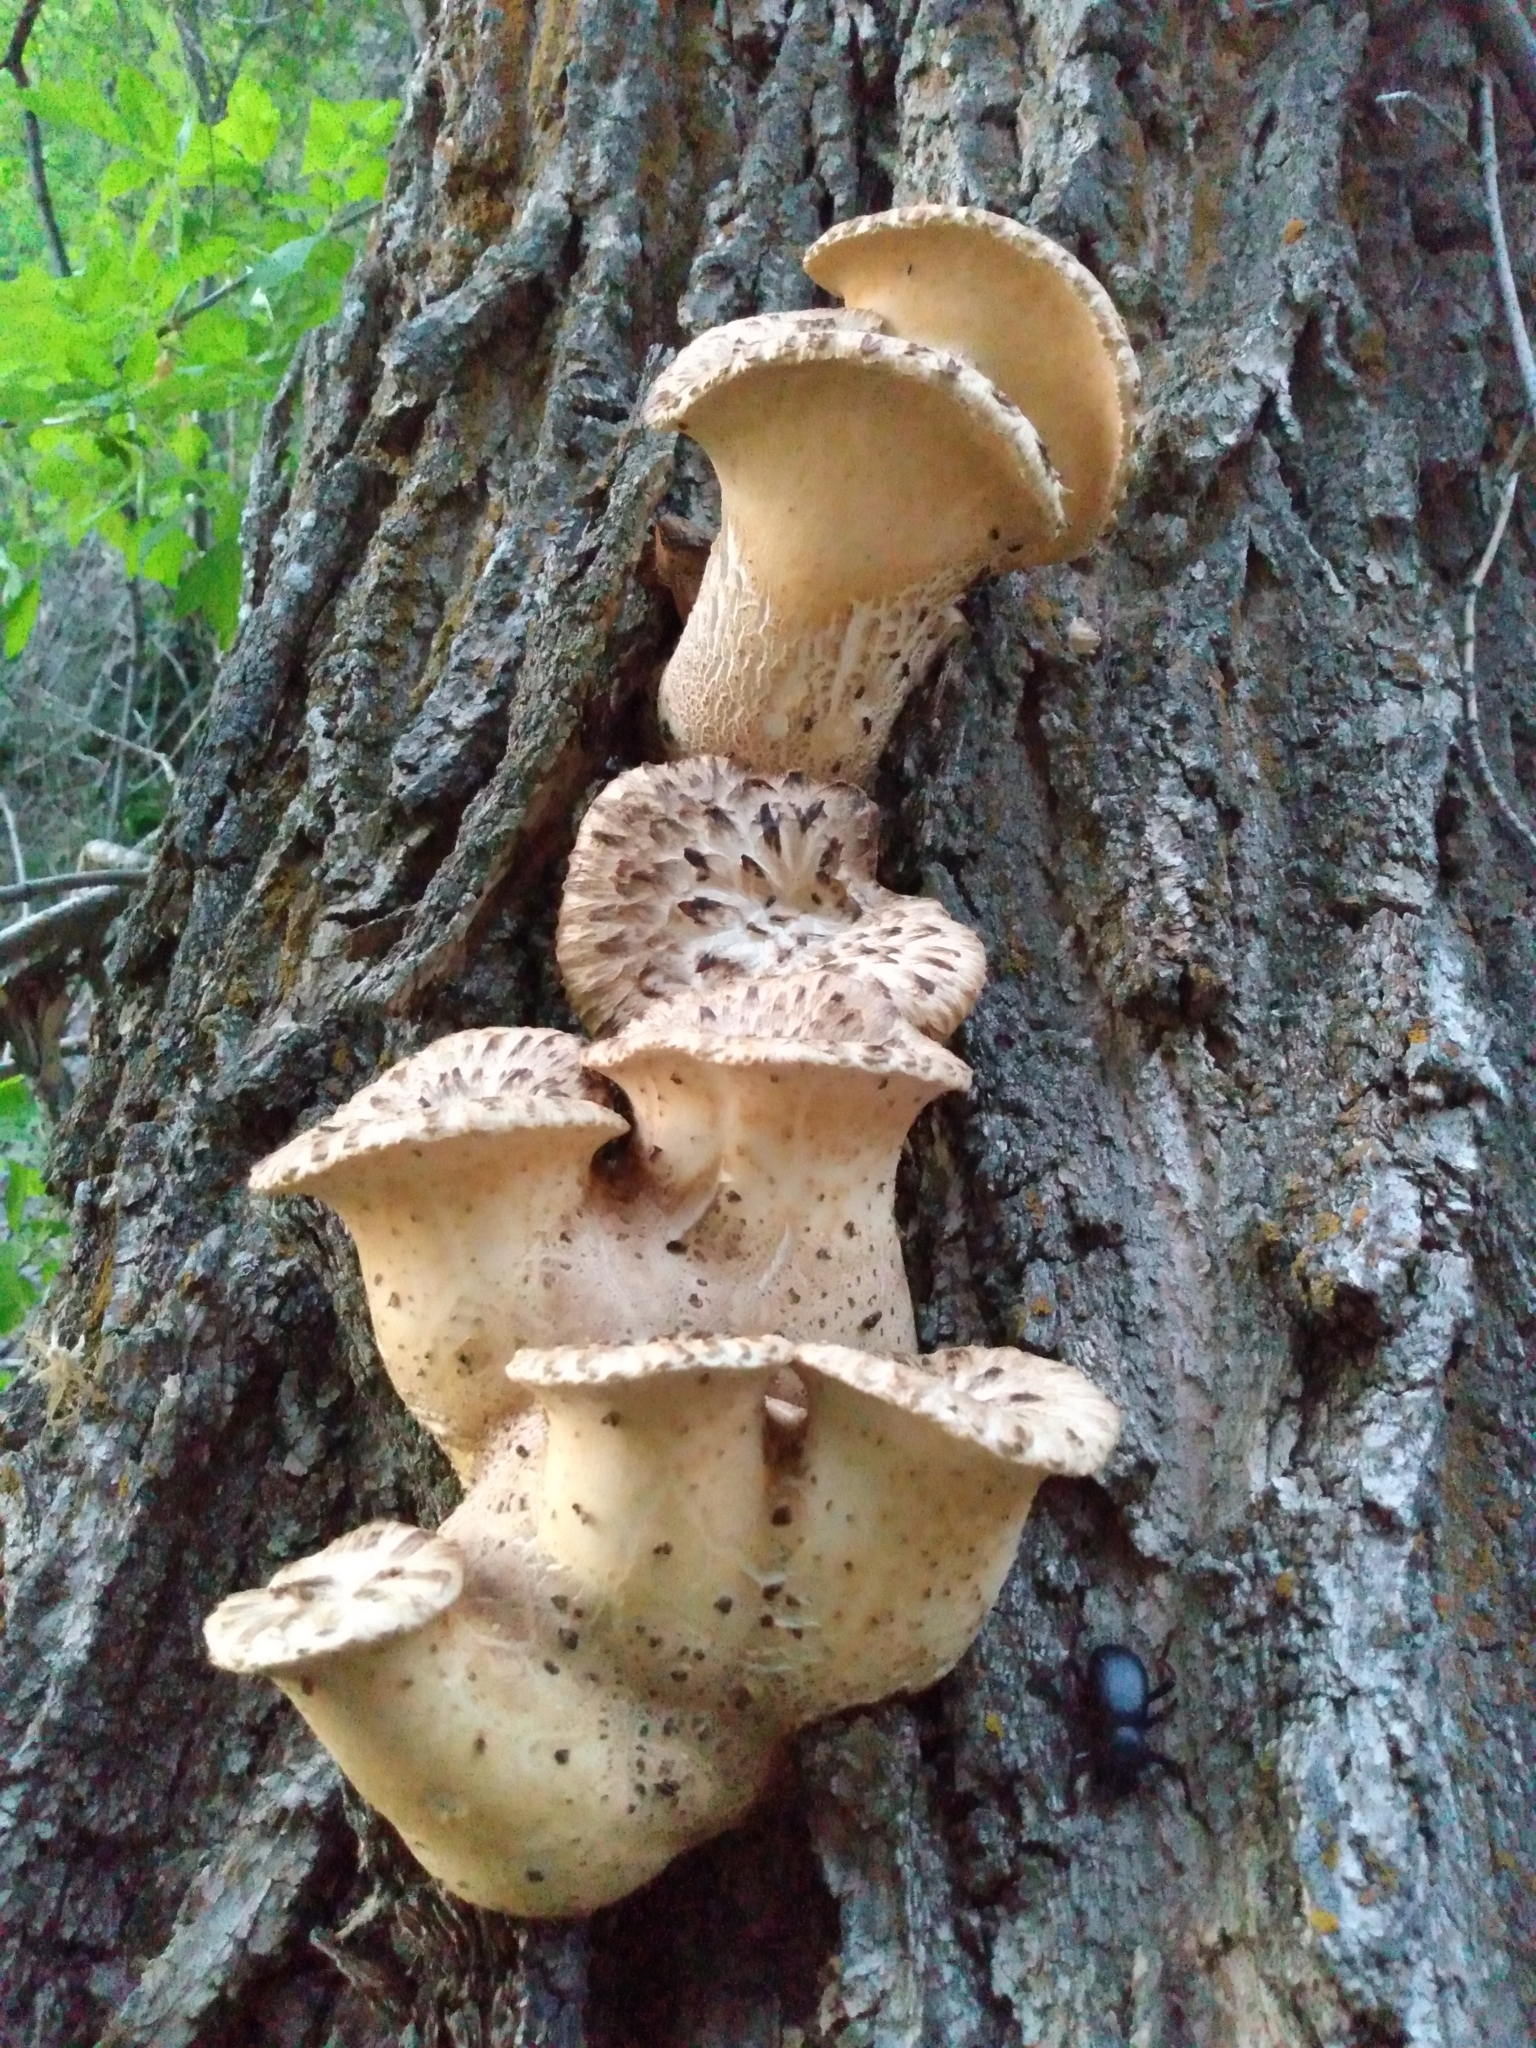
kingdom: Fungi
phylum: Basidiomycota
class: Agaricomycetes
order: Polyporales
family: Polyporaceae
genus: Cerioporus
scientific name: Cerioporus squamosus
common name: Dryad's saddle
